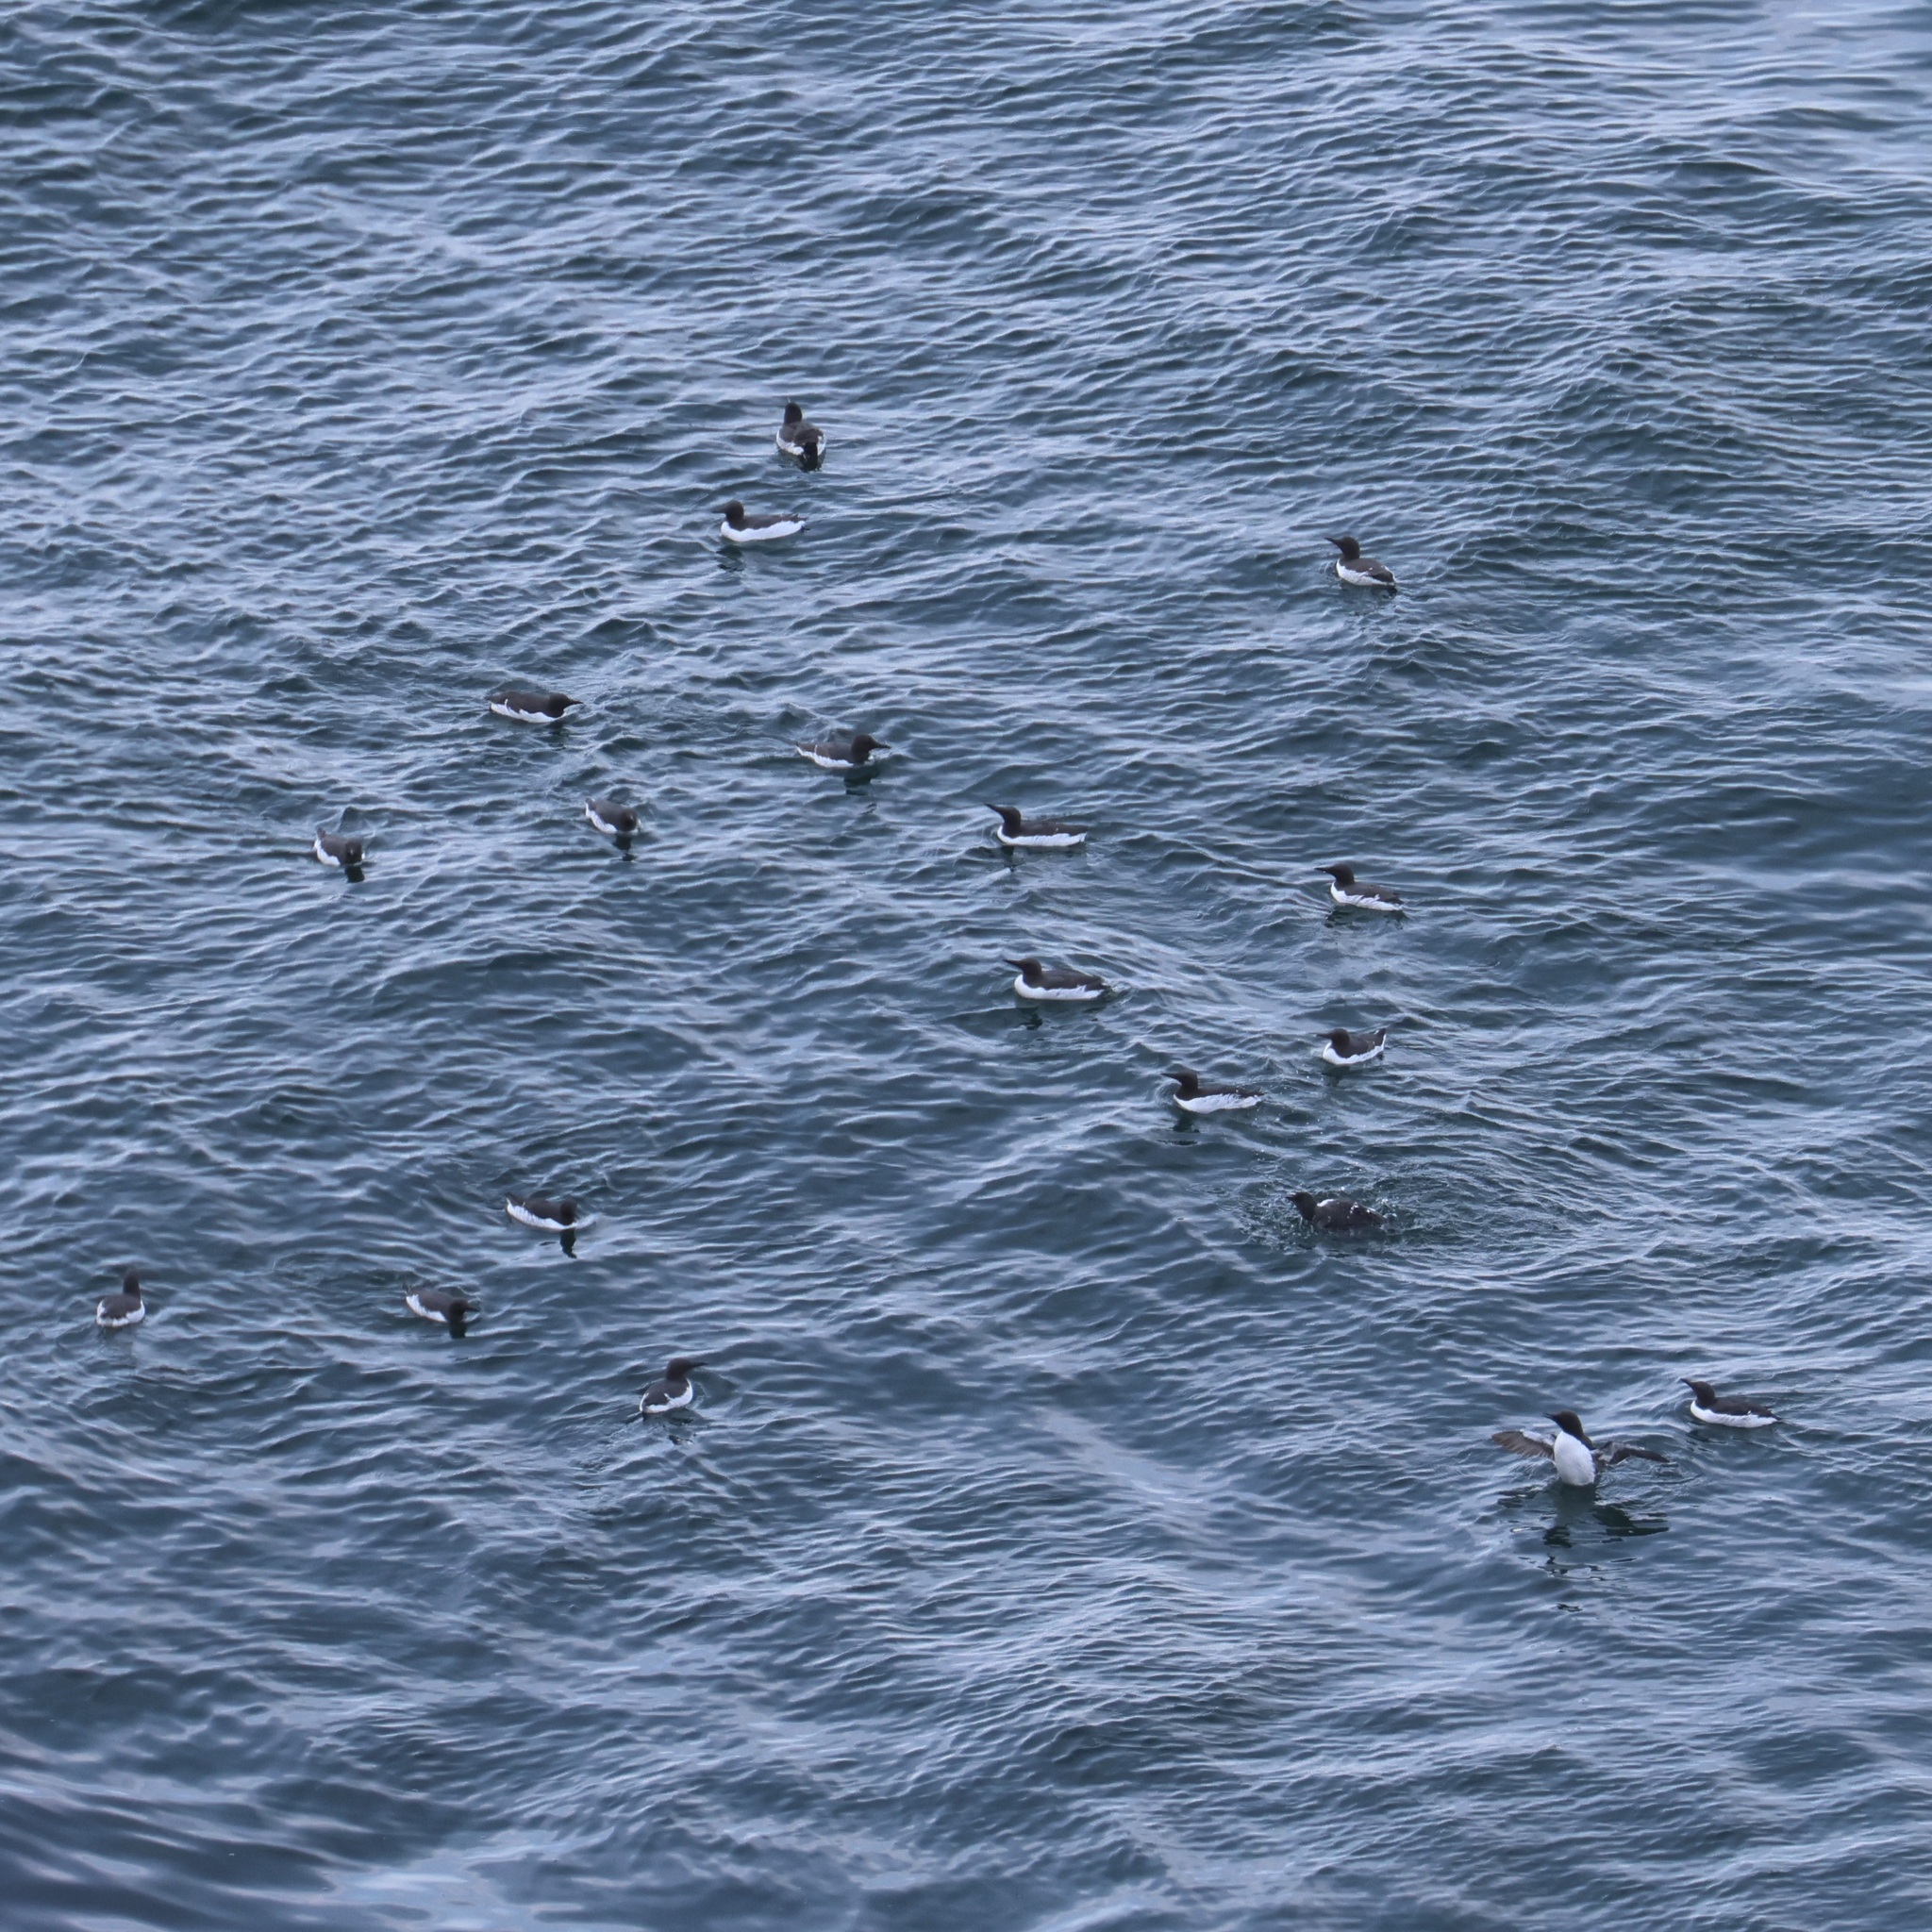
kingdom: Animalia
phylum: Chordata
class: Aves
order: Charadriiformes
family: Alcidae
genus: Uria
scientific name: Uria aalge
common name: Common murre
